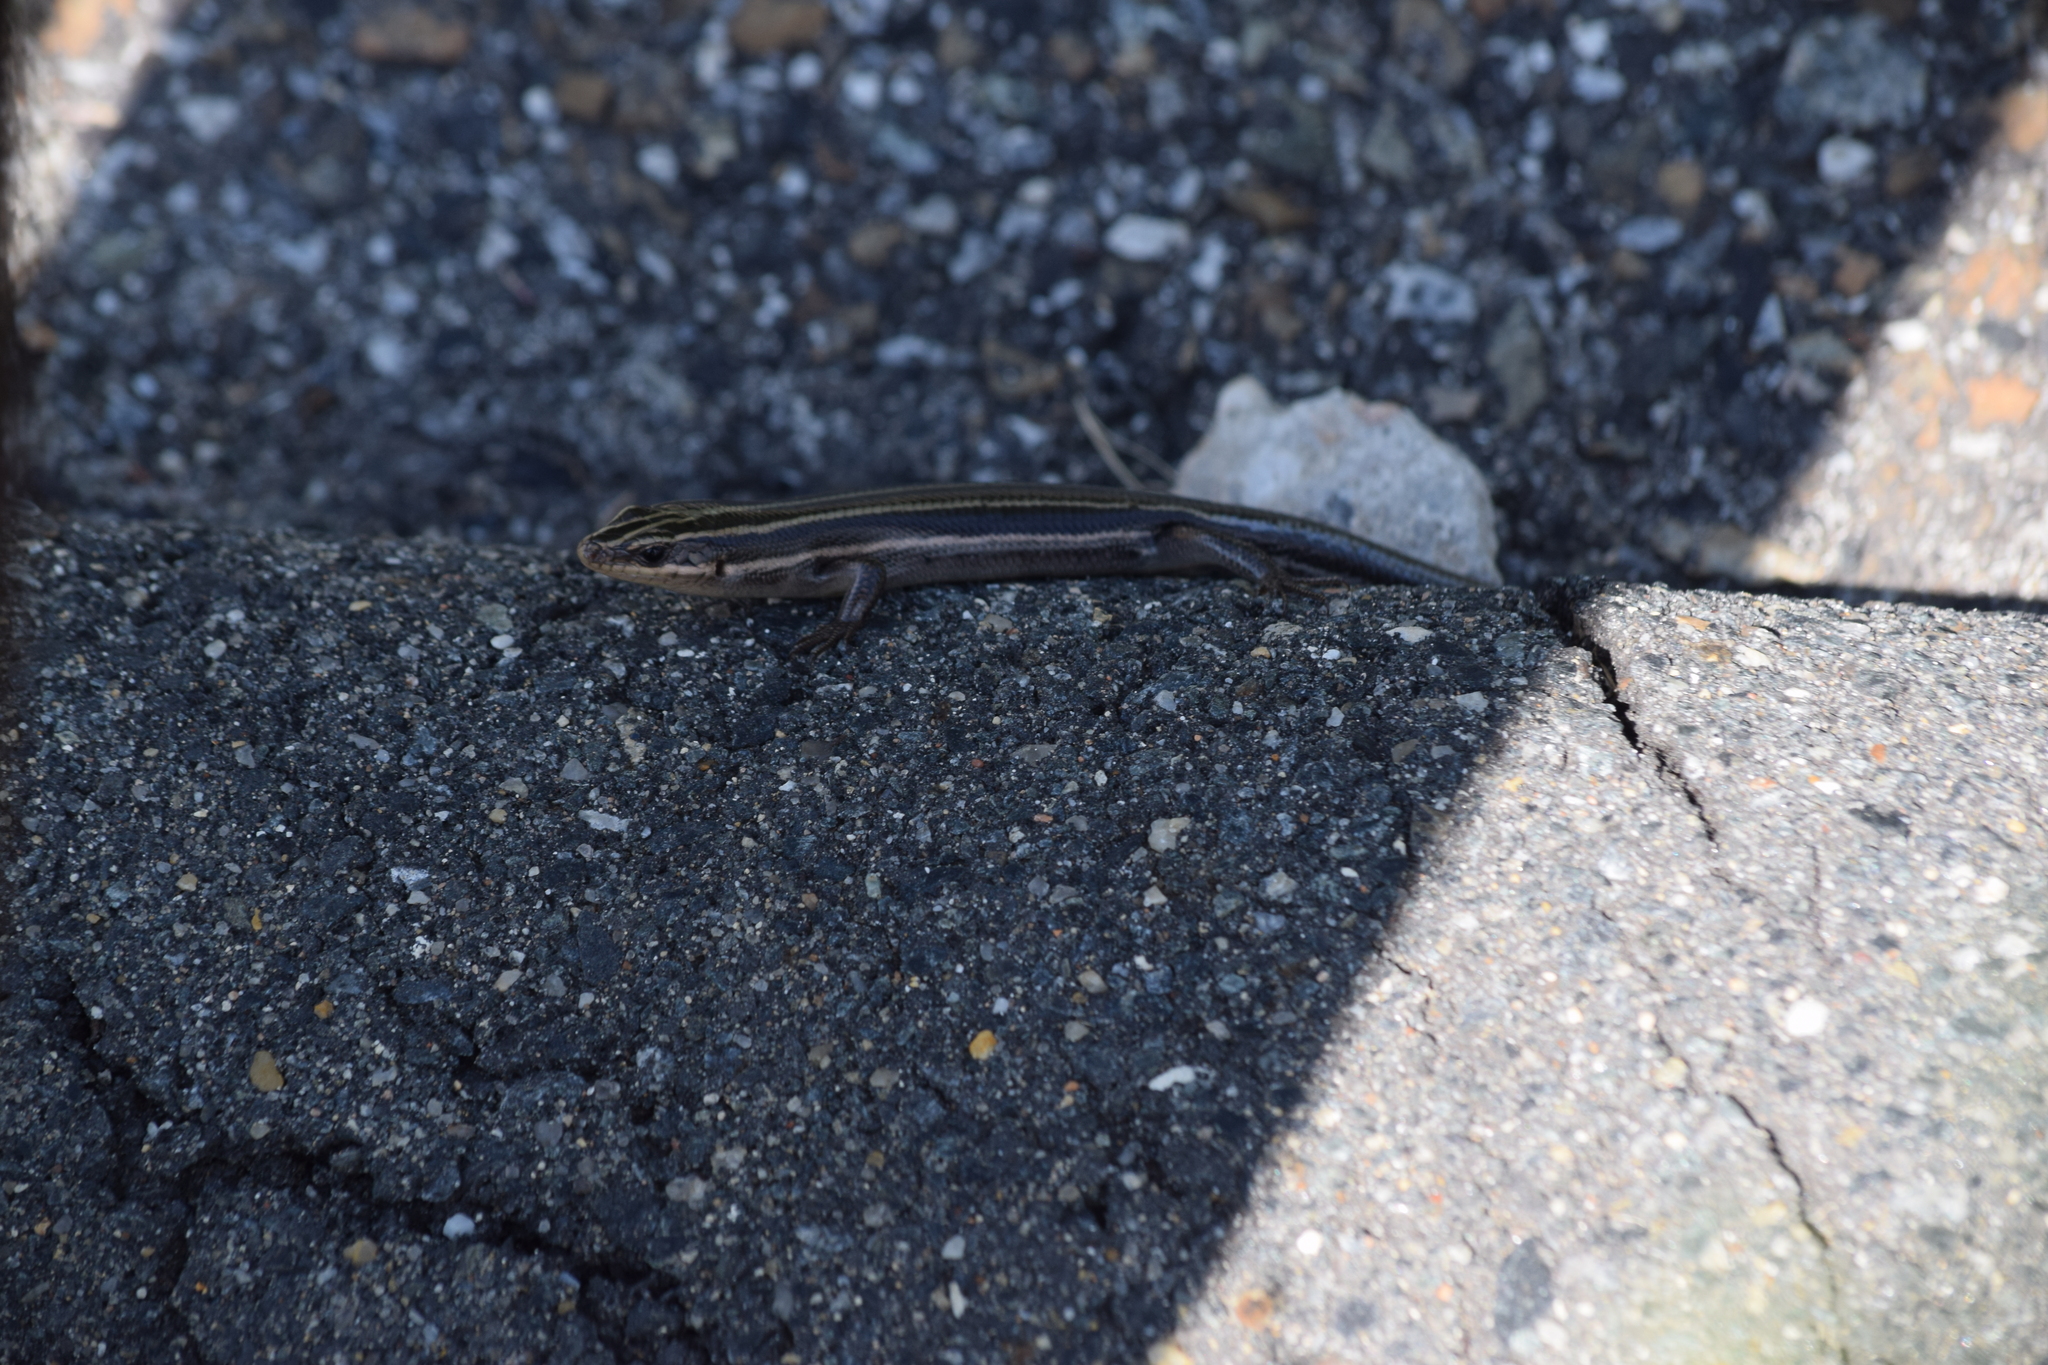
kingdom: Animalia
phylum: Chordata
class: Squamata
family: Scincidae
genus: Plestiodon
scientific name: Plestiodon fasciatus
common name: Five-lined skink
